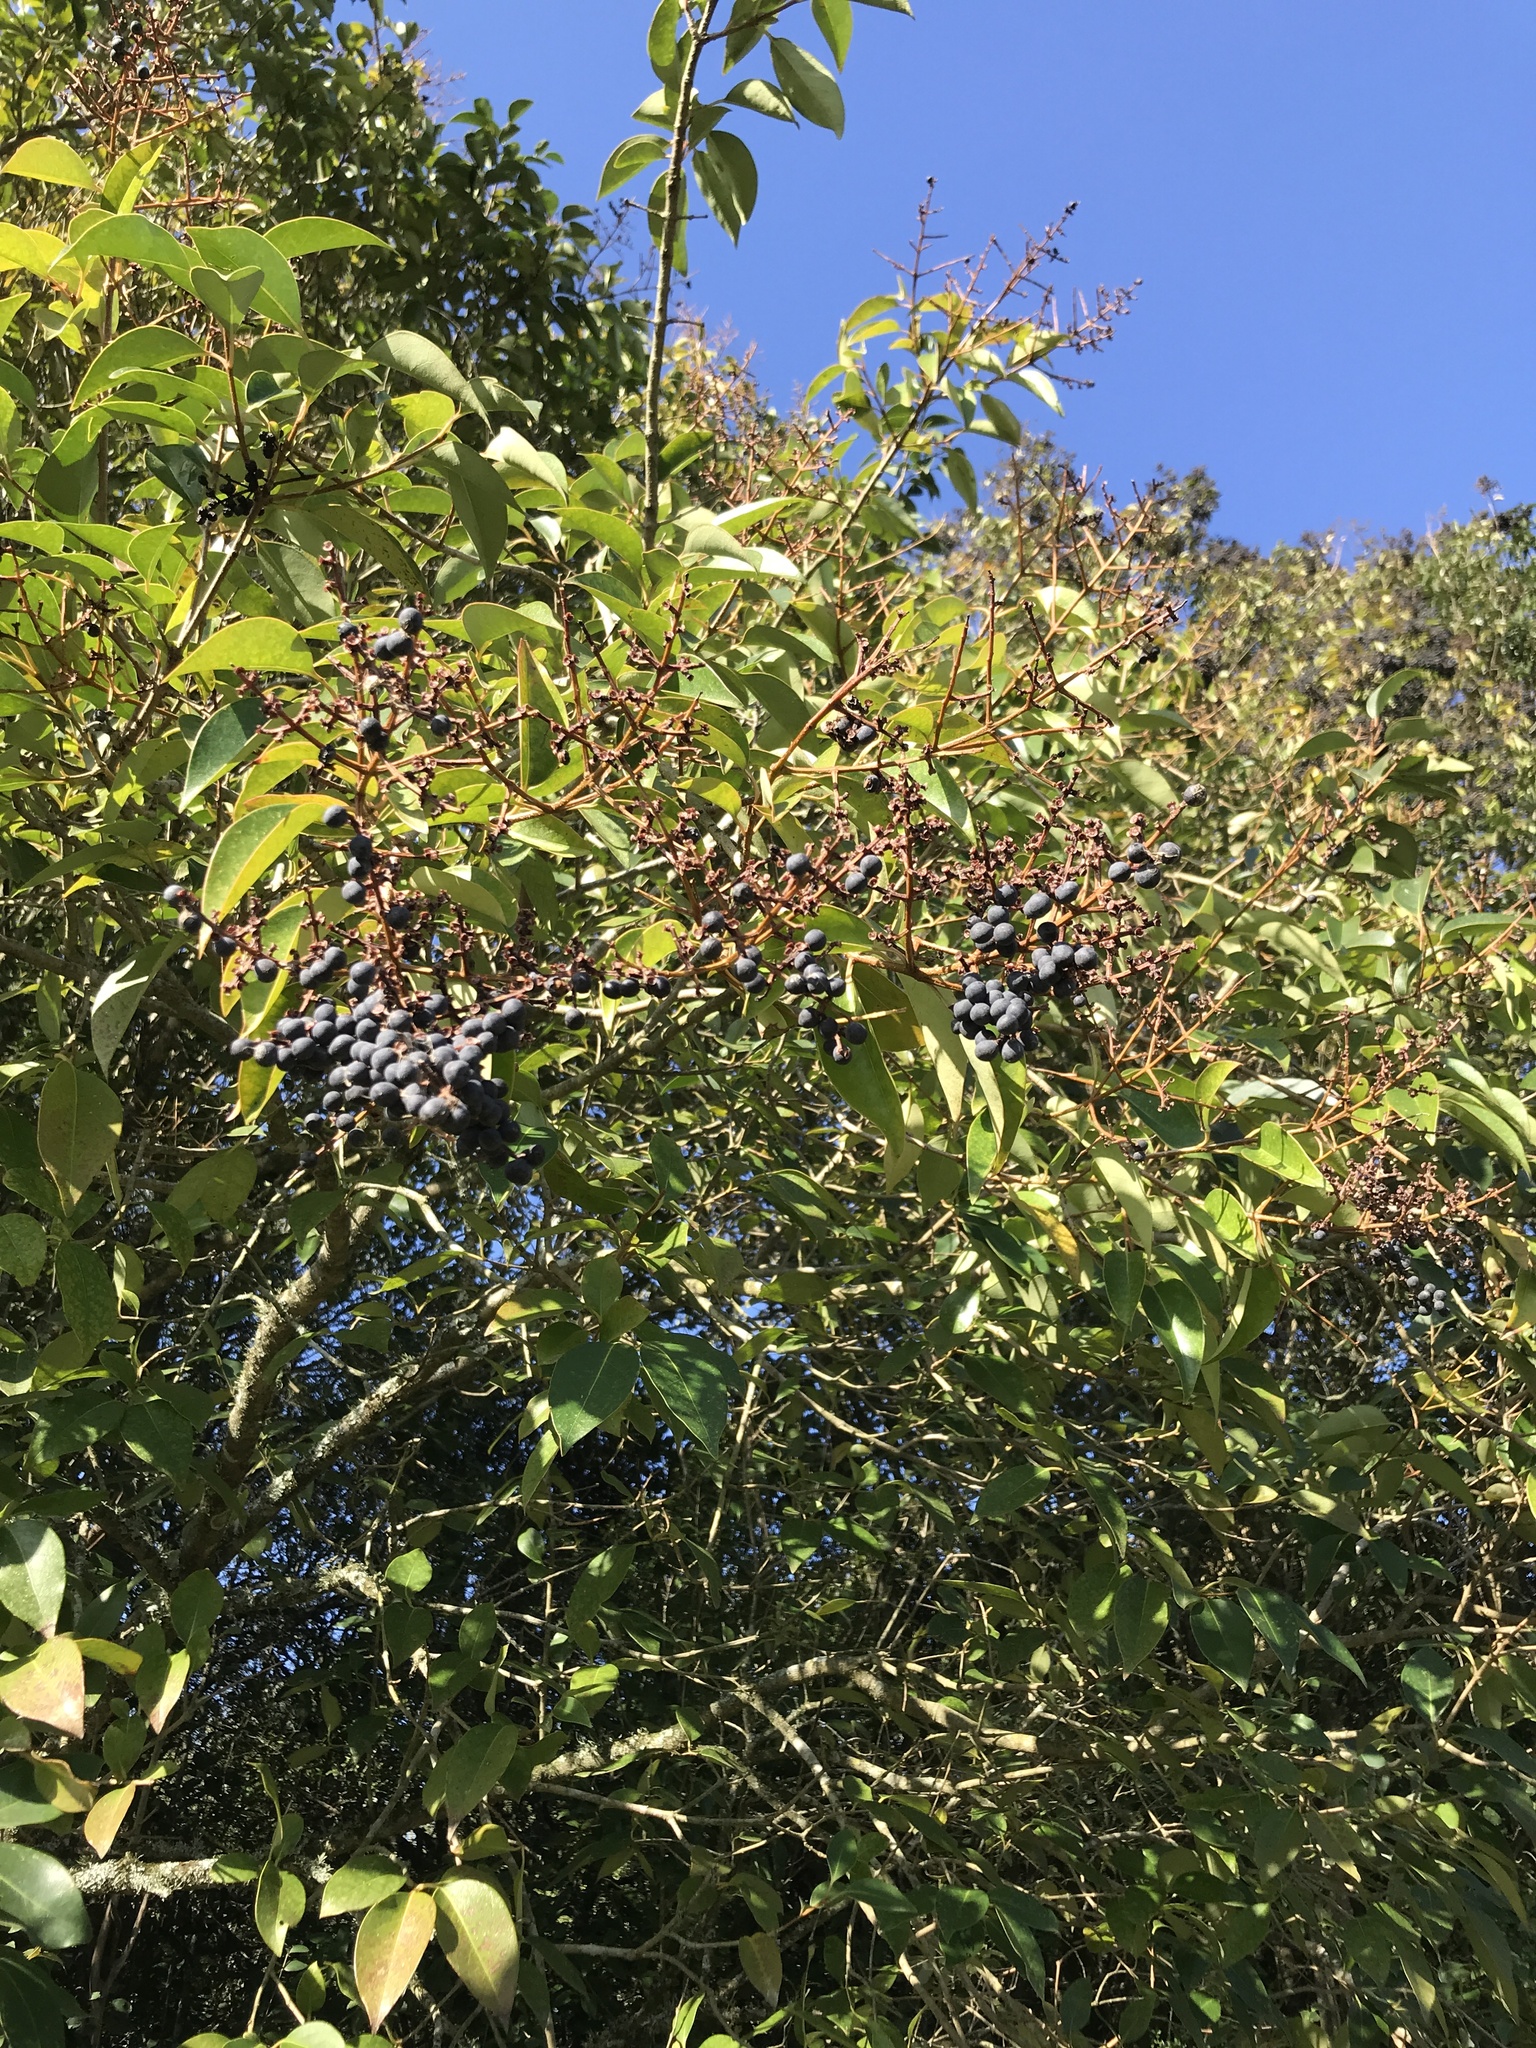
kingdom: Plantae
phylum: Tracheophyta
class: Magnoliopsida
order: Lamiales
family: Oleaceae
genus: Ligustrum
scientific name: Ligustrum lucidum
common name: Glossy privet
